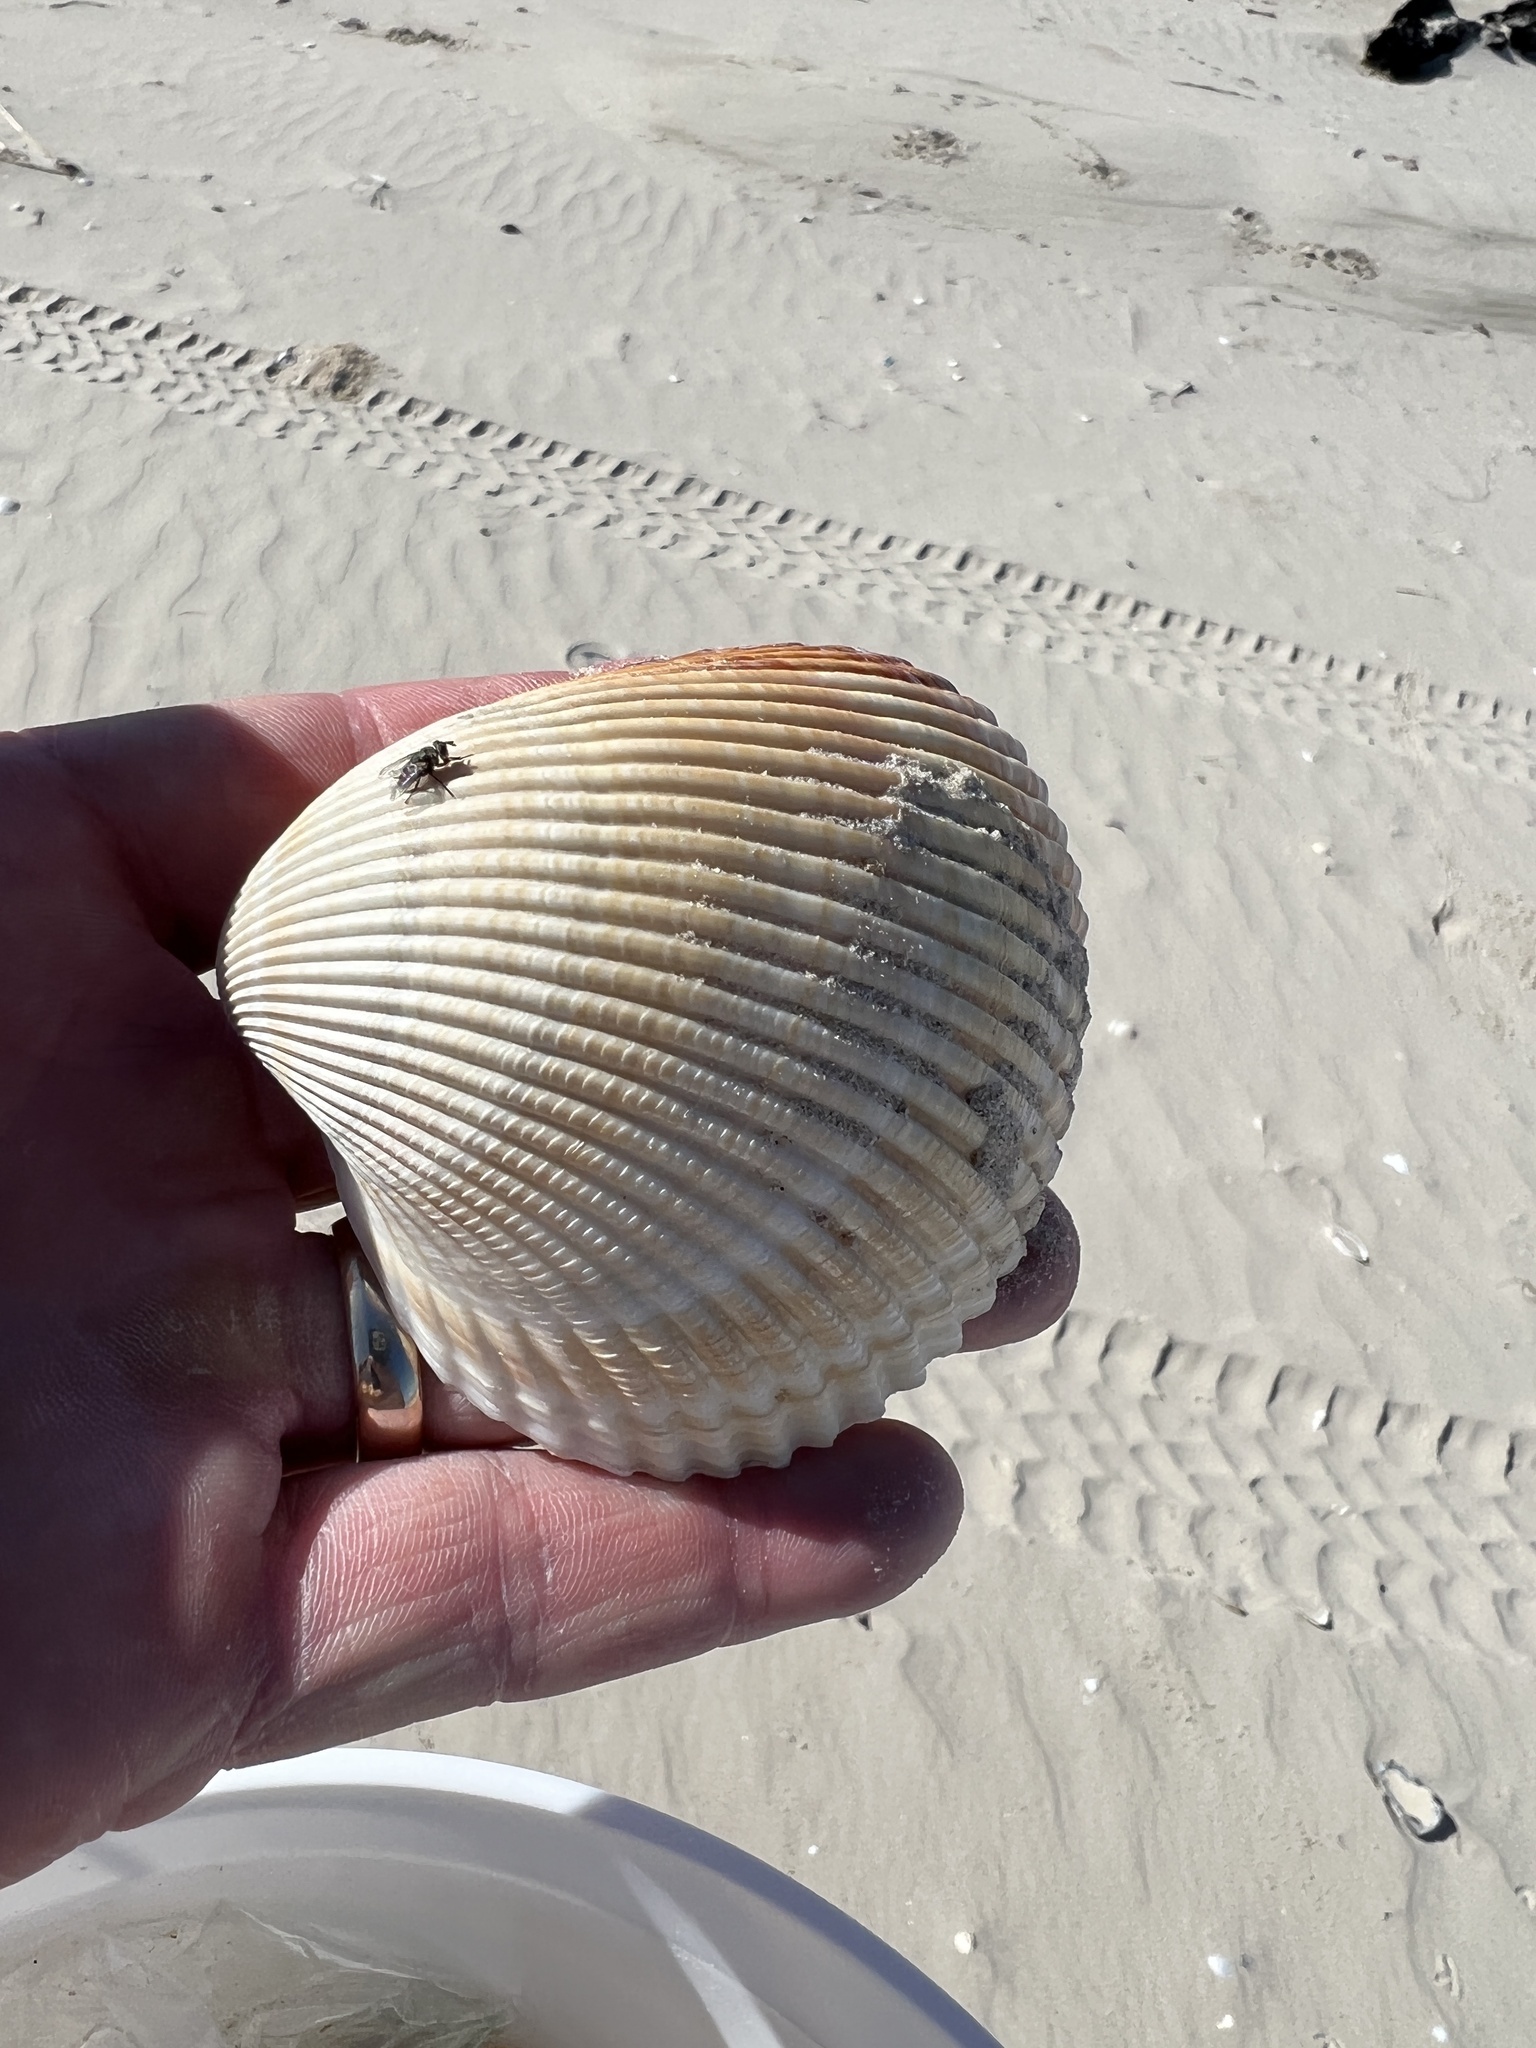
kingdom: Animalia
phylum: Mollusca
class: Bivalvia
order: Cardiida
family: Cardiidae
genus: Dinocardium
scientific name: Dinocardium robustum
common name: Atlantic giant cockle
